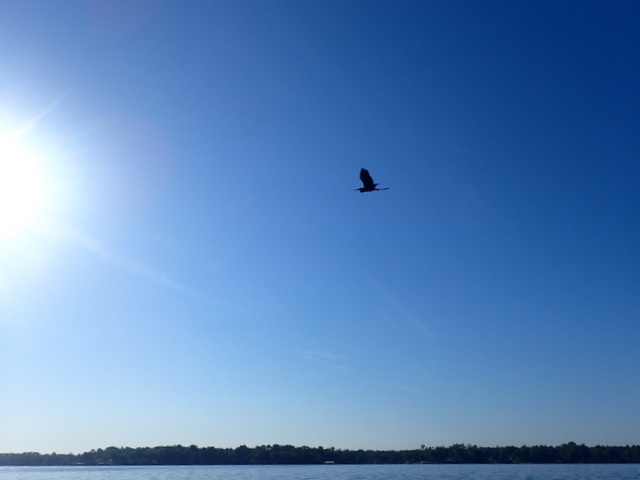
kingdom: Animalia
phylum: Chordata
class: Aves
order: Pelecaniformes
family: Ardeidae
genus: Ardea
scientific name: Ardea herodias
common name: Great blue heron
